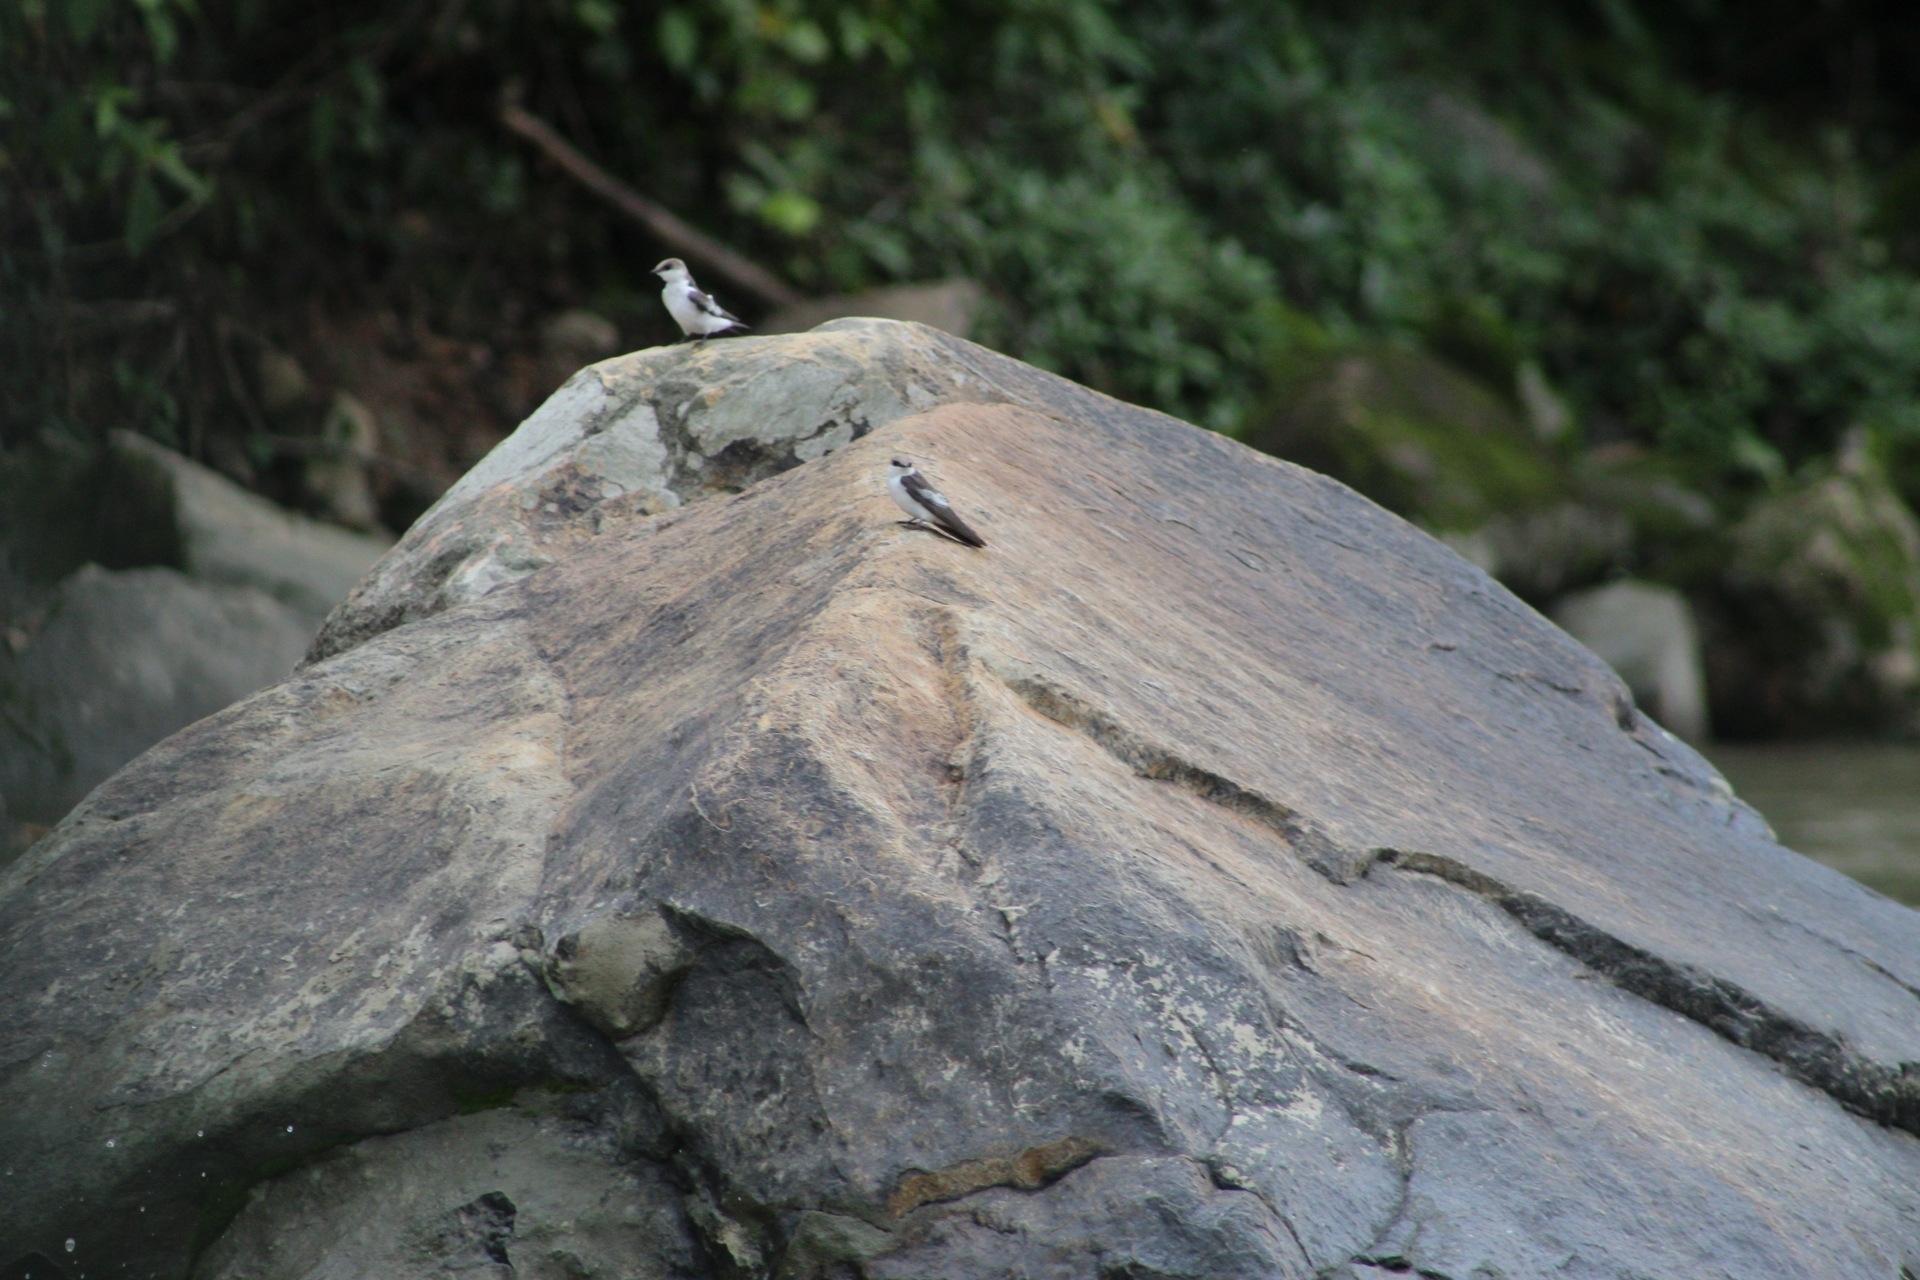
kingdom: Animalia
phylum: Chordata
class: Aves
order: Passeriformes
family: Hirundinidae
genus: Tachycineta
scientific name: Tachycineta albiventer
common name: White-winged swallow
